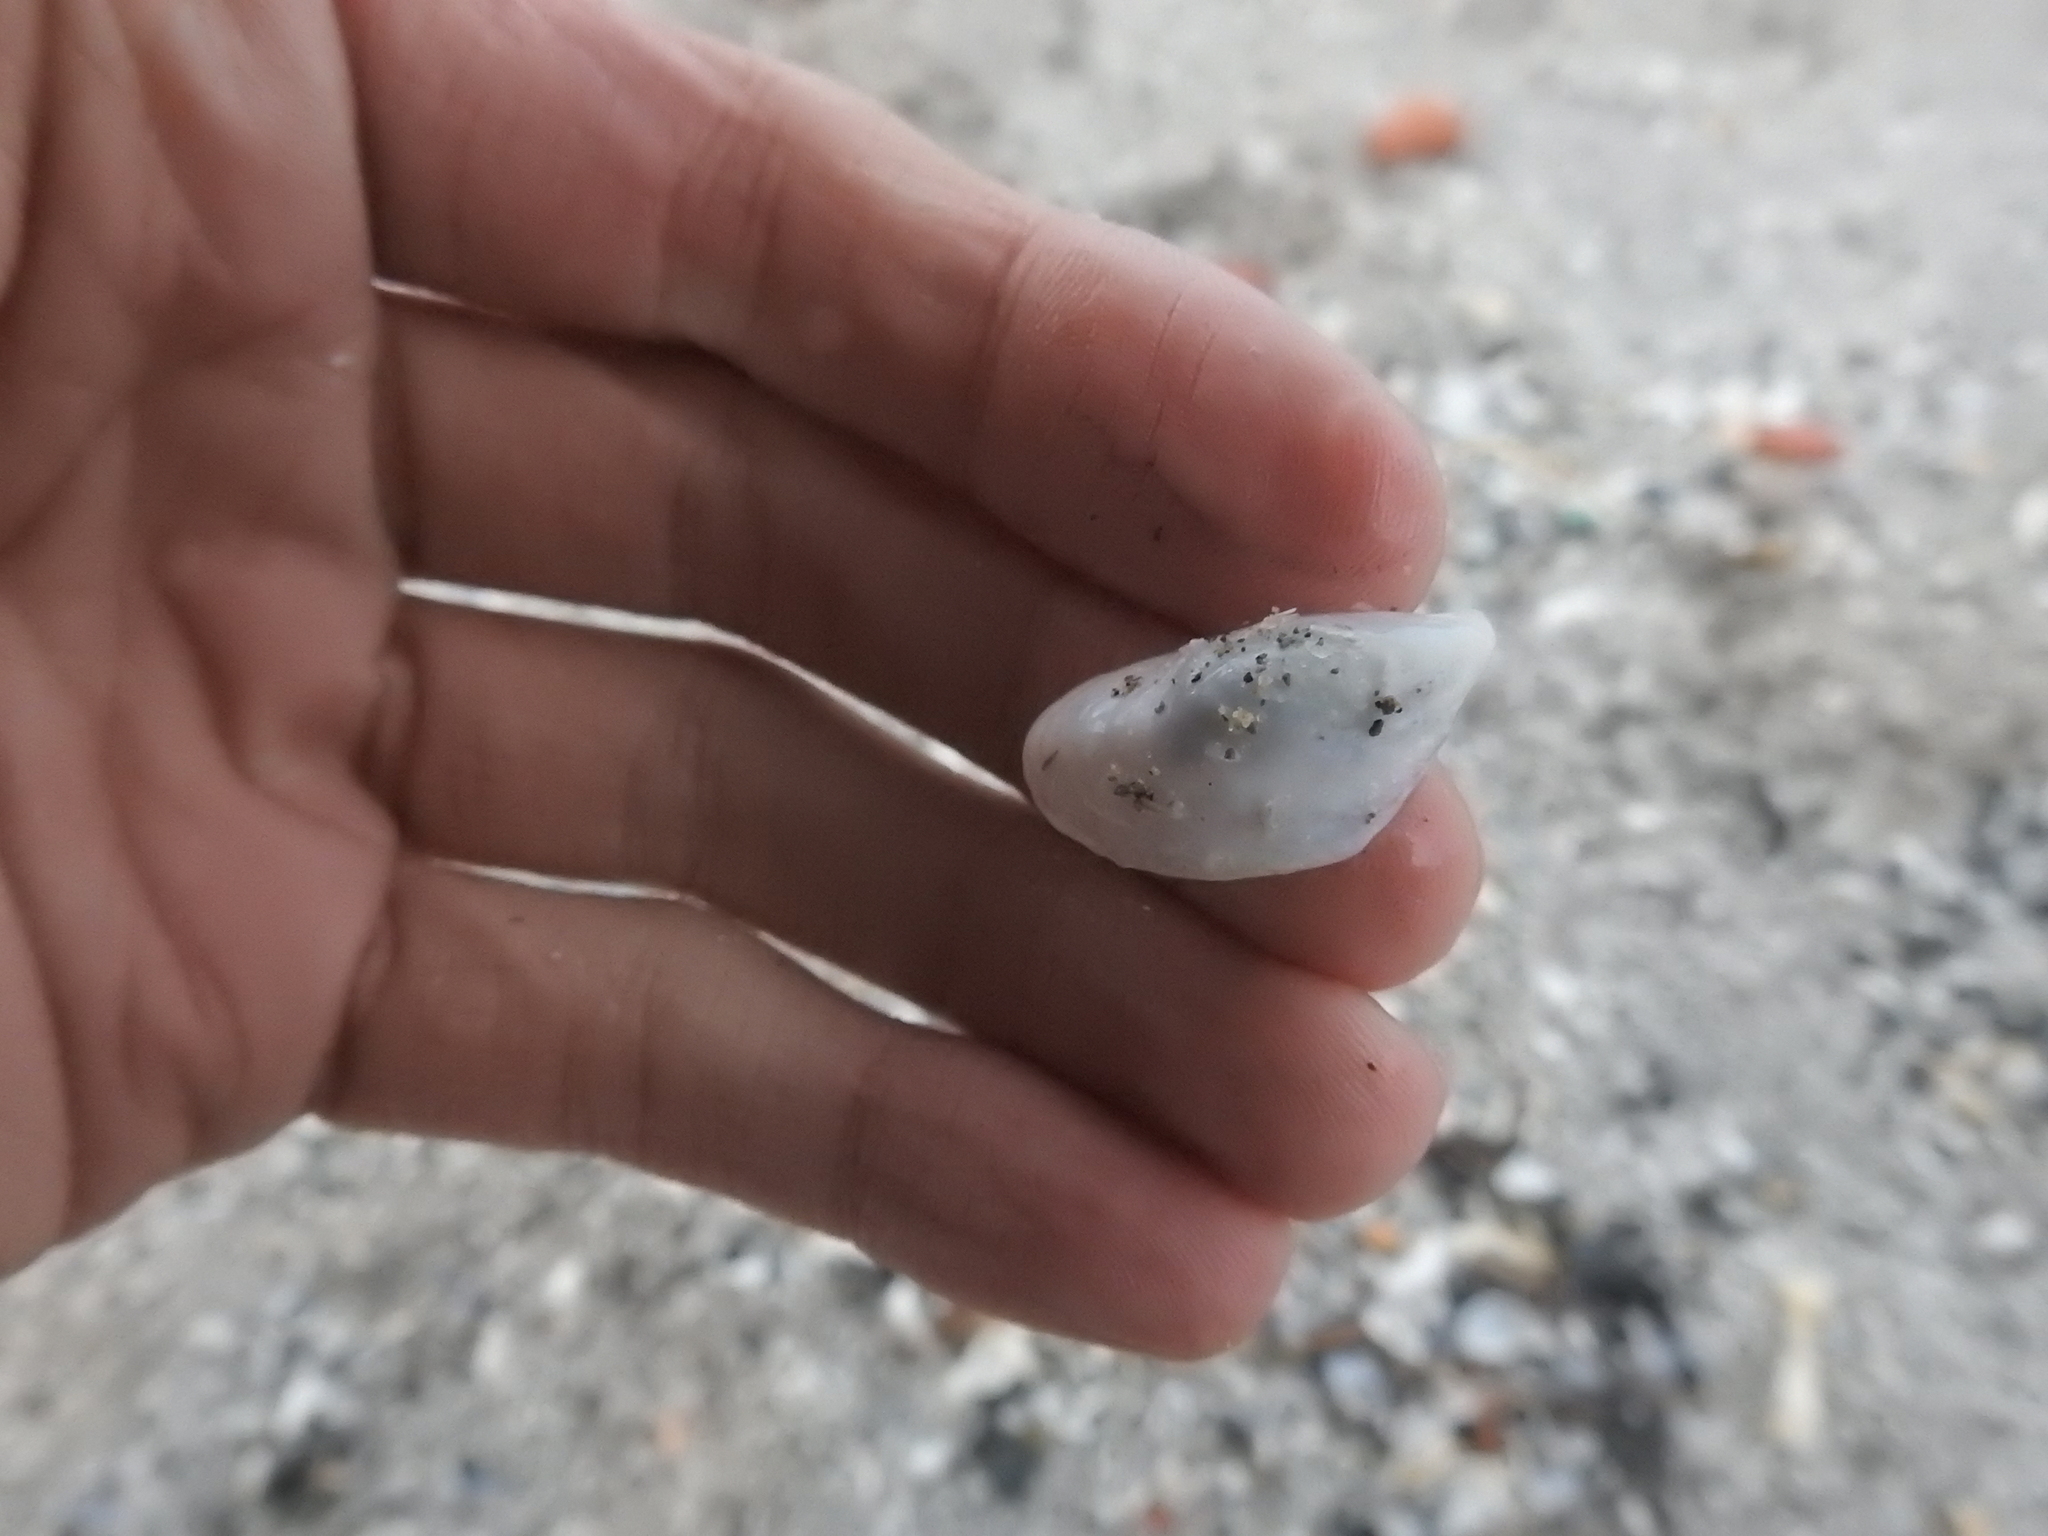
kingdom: Animalia
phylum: Mollusca
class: Bivalvia
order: Myida
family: Dreissenidae
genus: Dreissena
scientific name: Dreissena bugensis
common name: Quagga mussel
